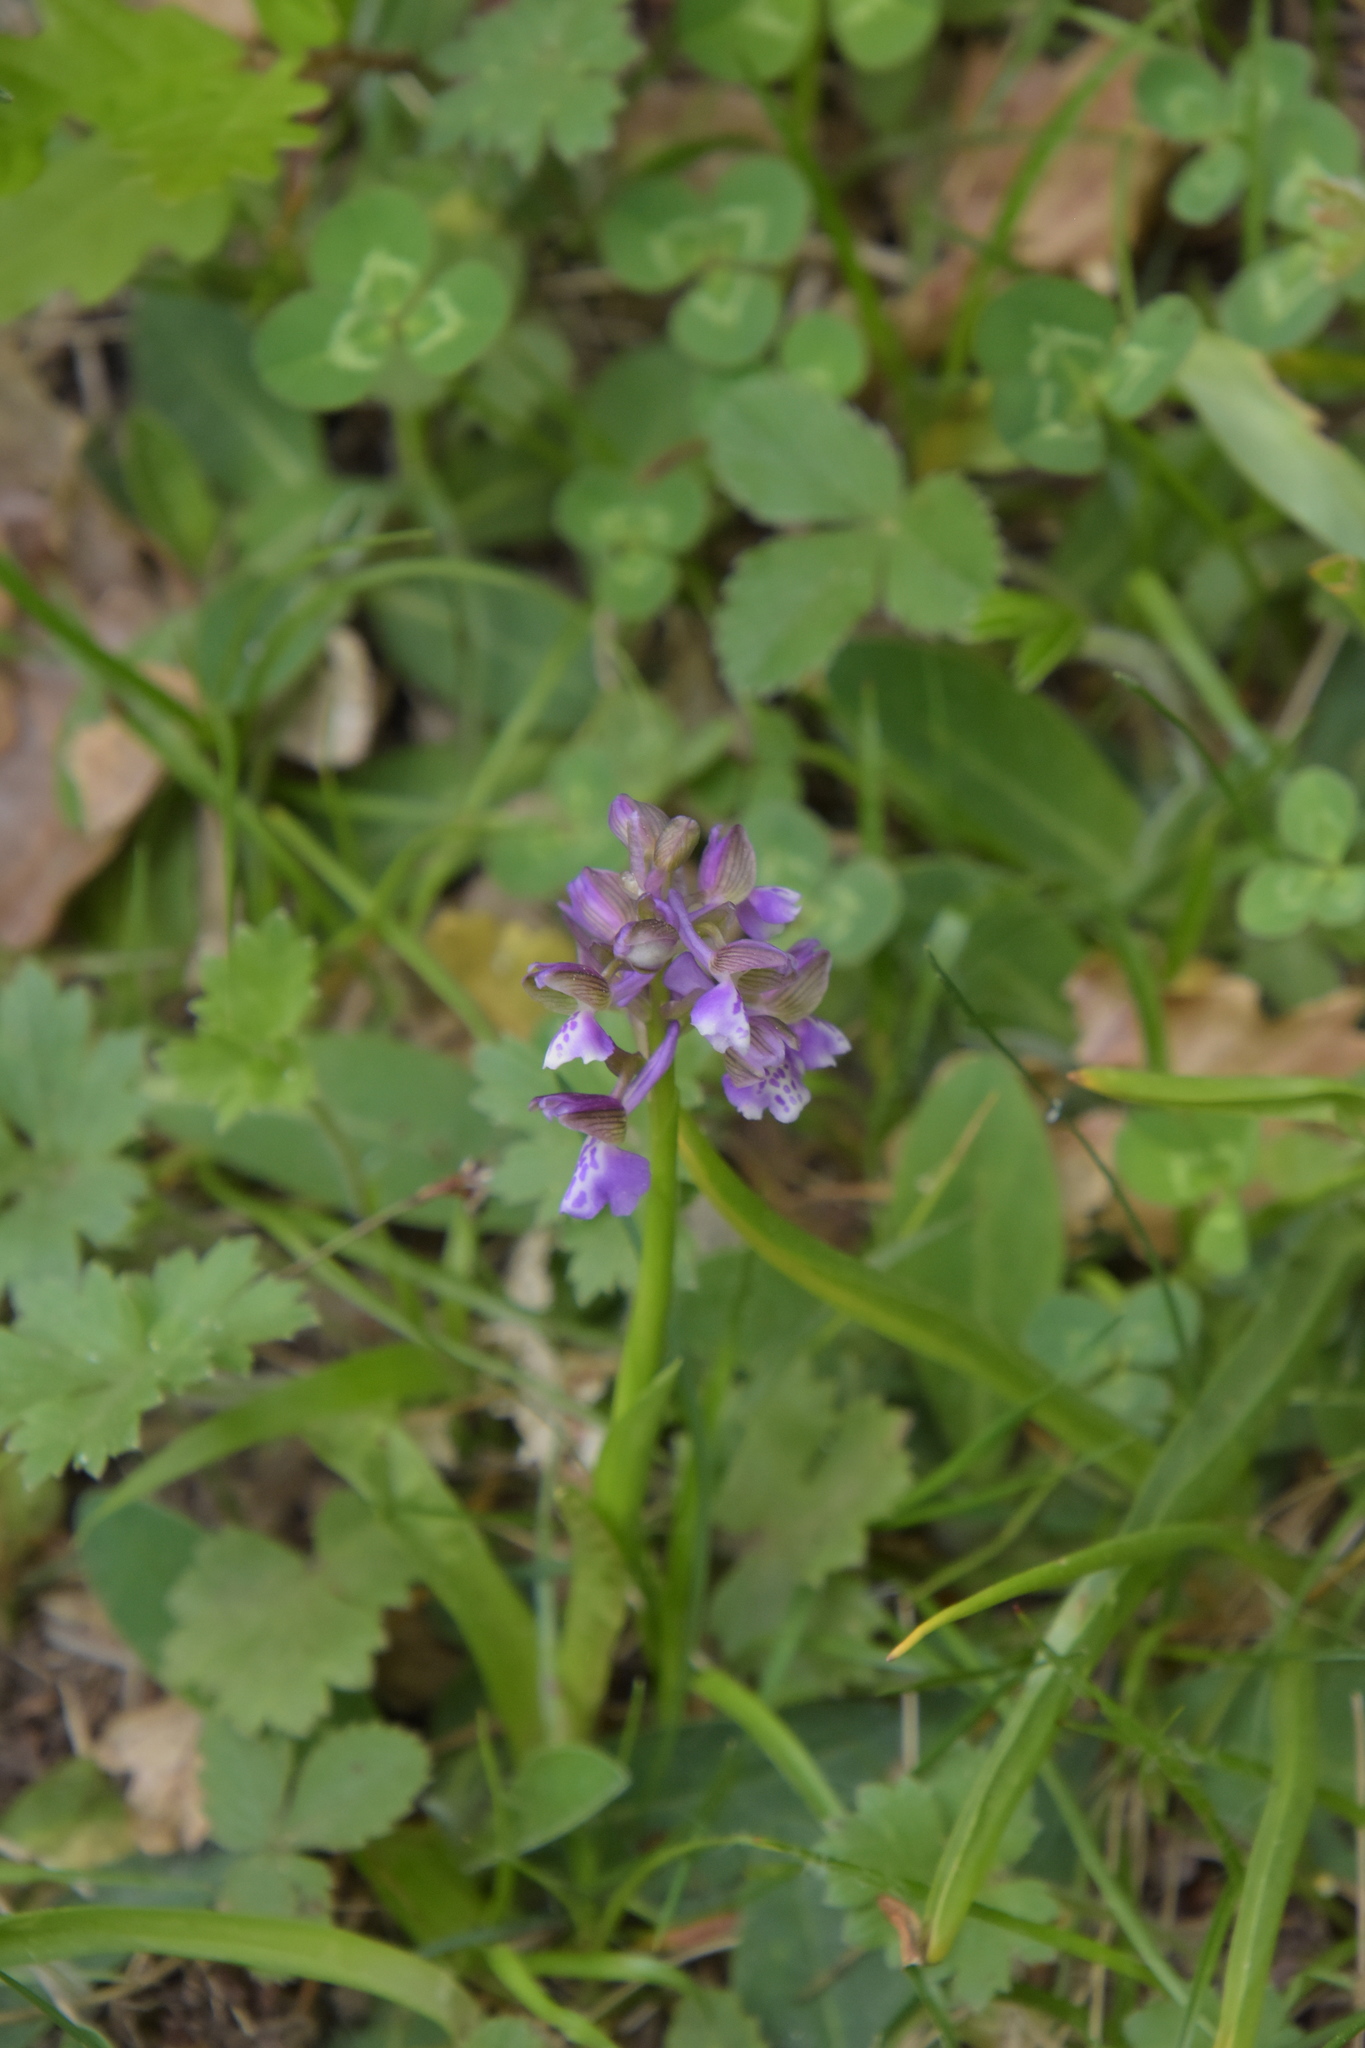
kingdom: Plantae
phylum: Tracheophyta
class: Liliopsida
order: Asparagales
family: Orchidaceae
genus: Anacamptis
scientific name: Anacamptis morio
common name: Green-winged orchid
